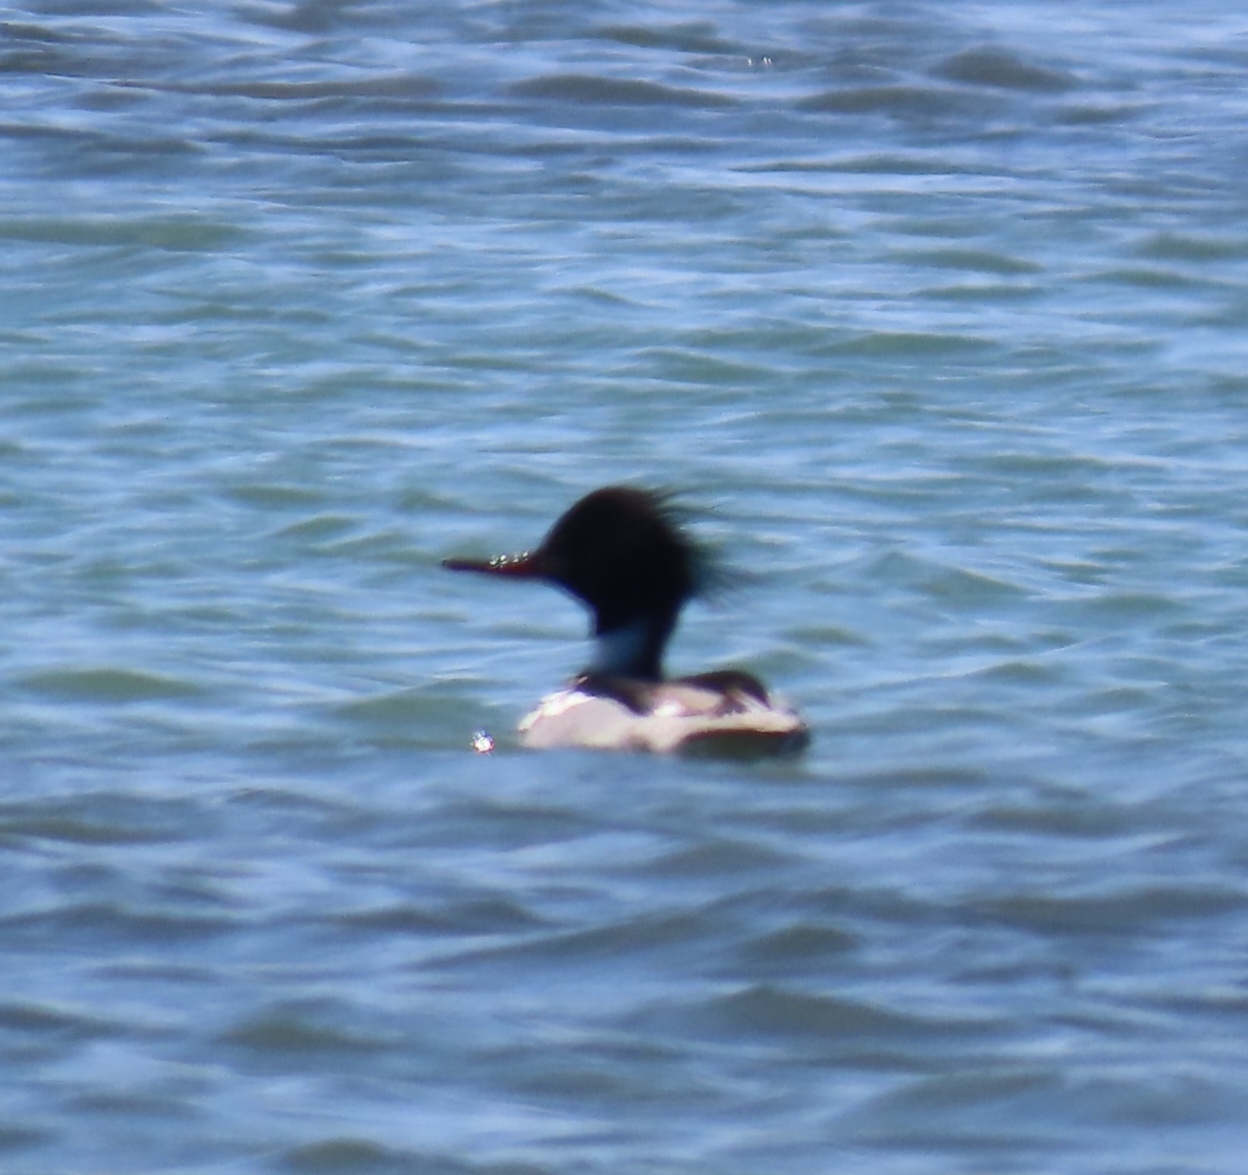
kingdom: Animalia
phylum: Chordata
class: Aves
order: Anseriformes
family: Anatidae
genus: Mergus
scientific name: Mergus serrator
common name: Red-breasted merganser
